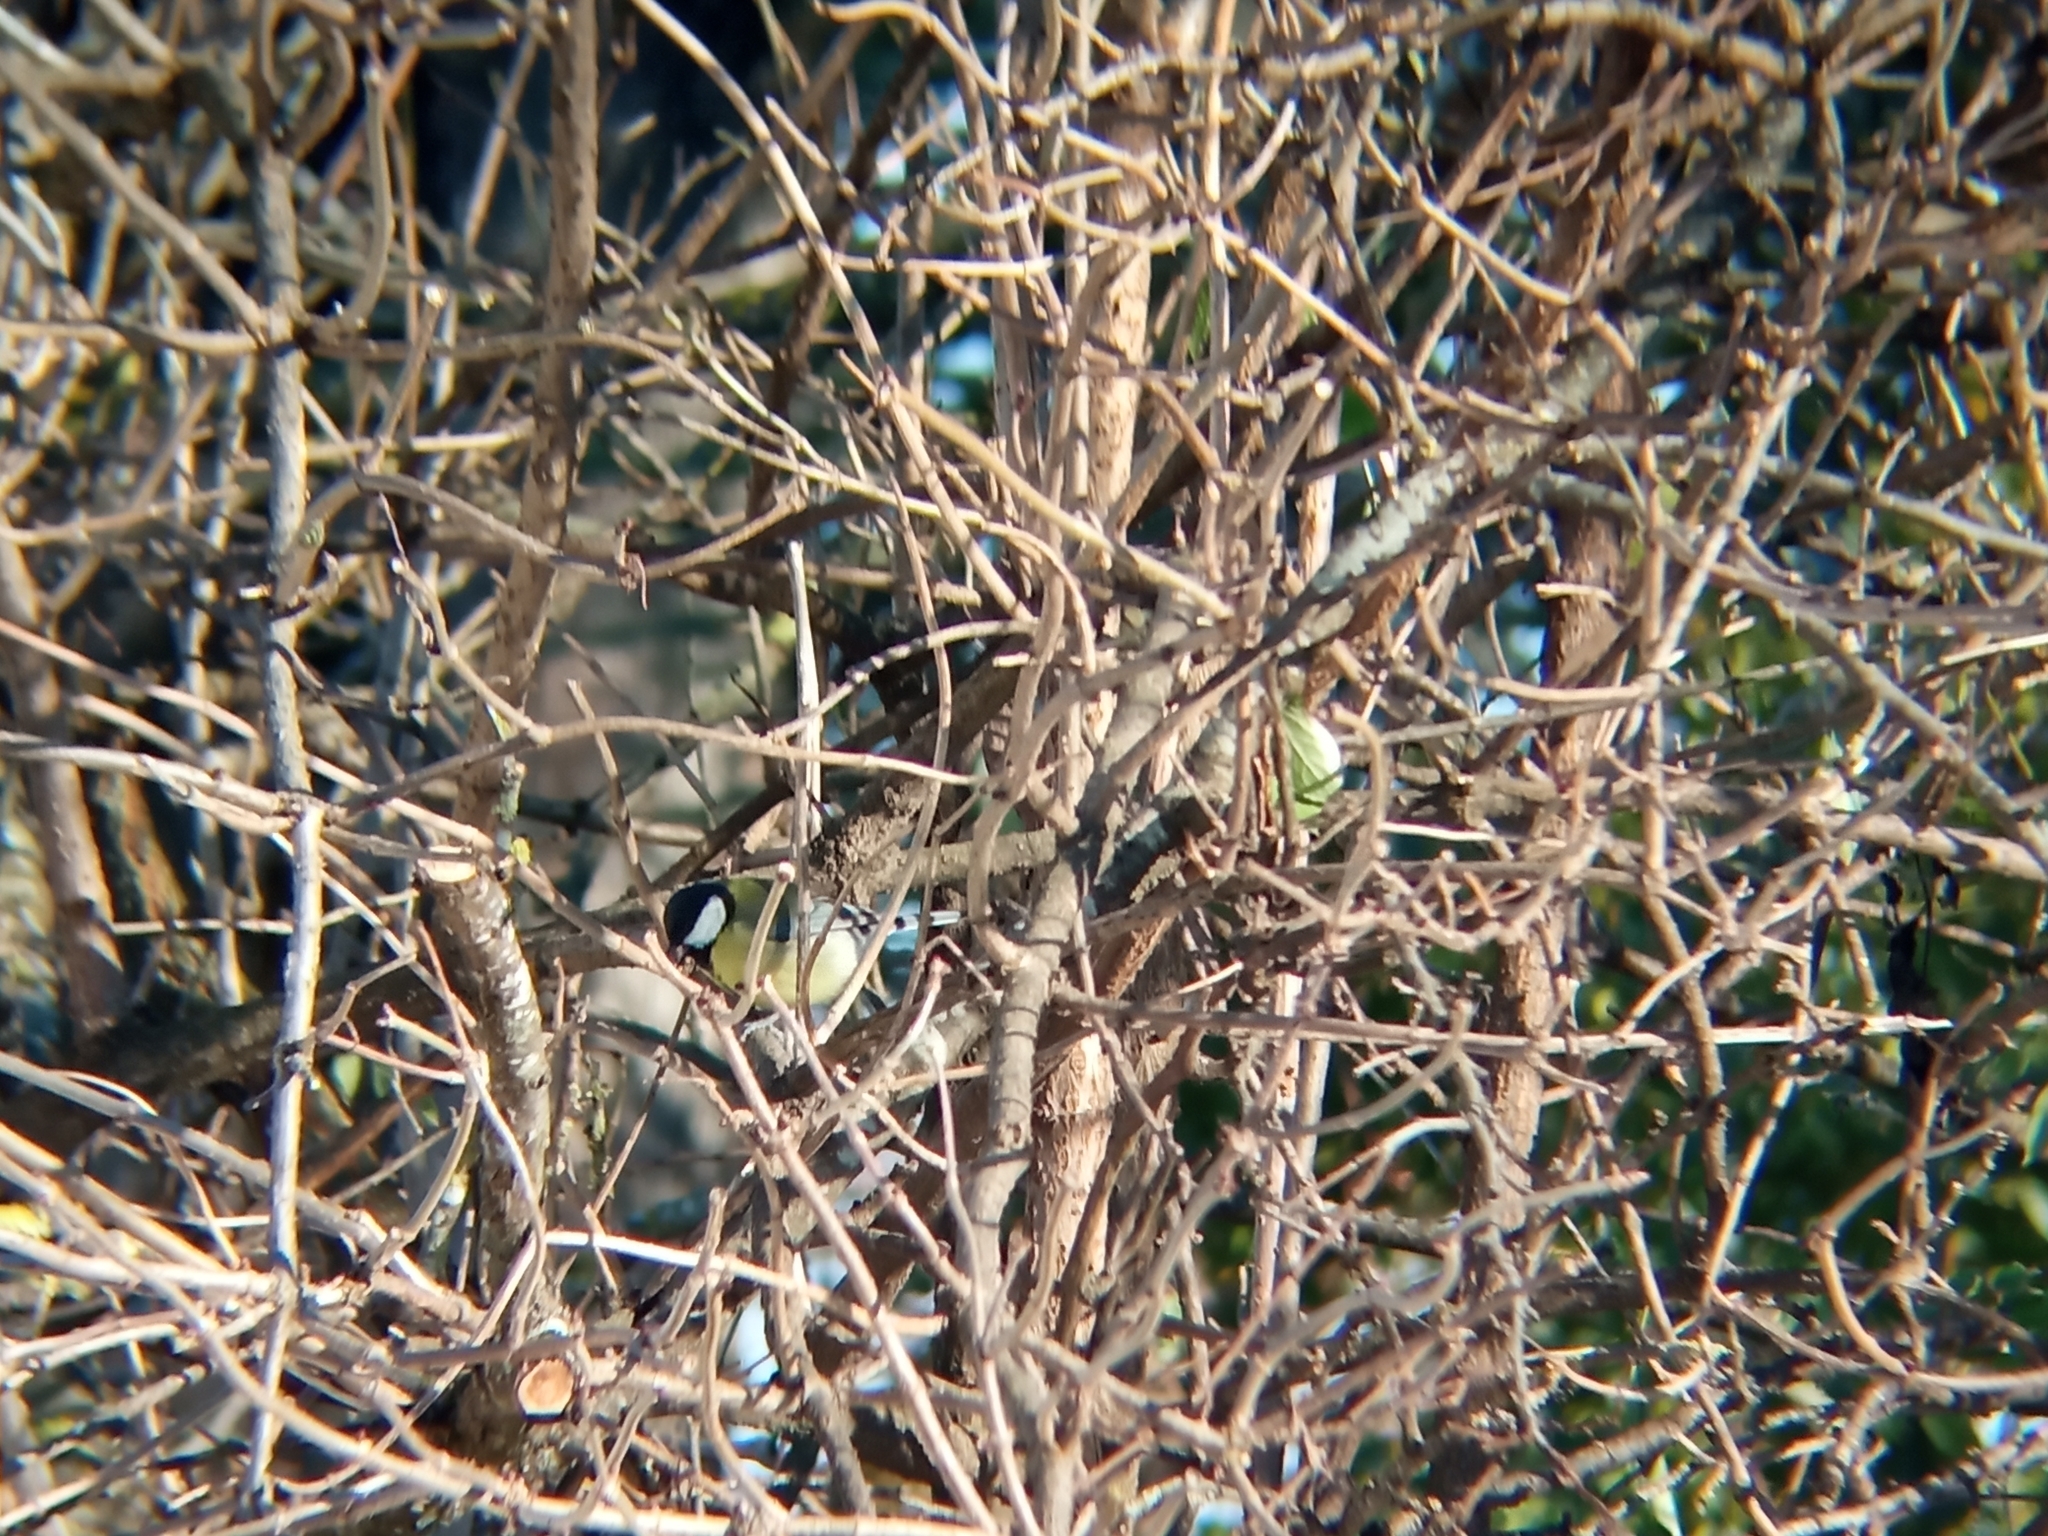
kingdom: Animalia
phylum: Chordata
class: Aves
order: Passeriformes
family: Paridae
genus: Parus
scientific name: Parus major
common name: Great tit
